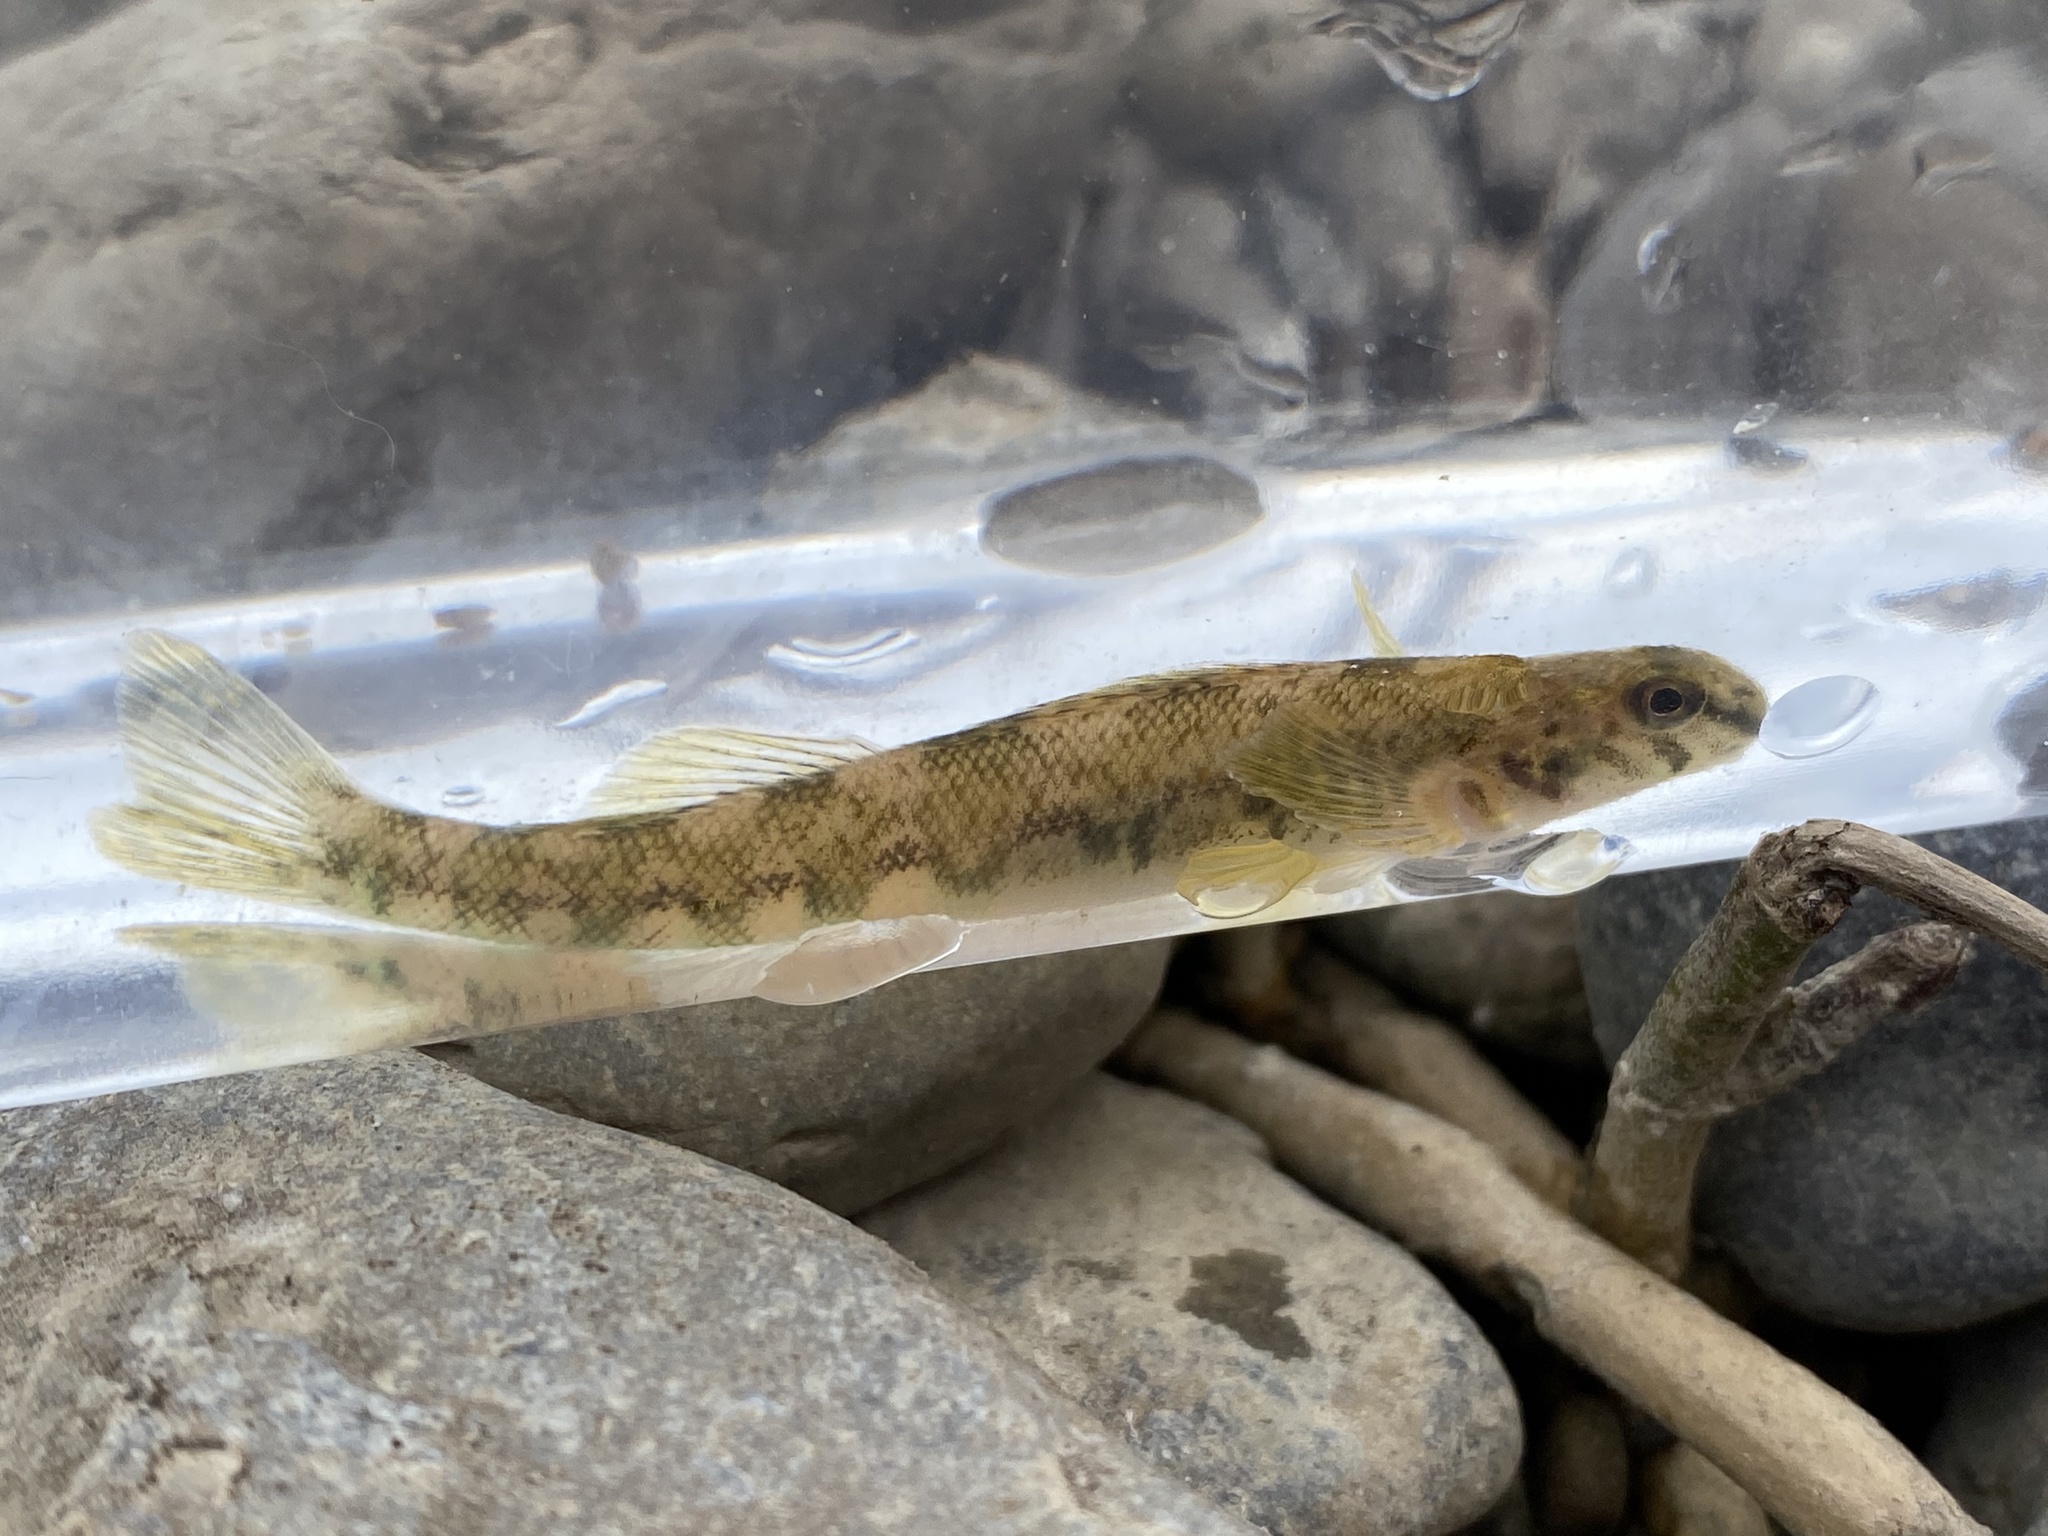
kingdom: Animalia
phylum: Chordata
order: Perciformes
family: Percidae
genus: Etheostoma
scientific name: Etheostoma blennioides
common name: Greenside darter
